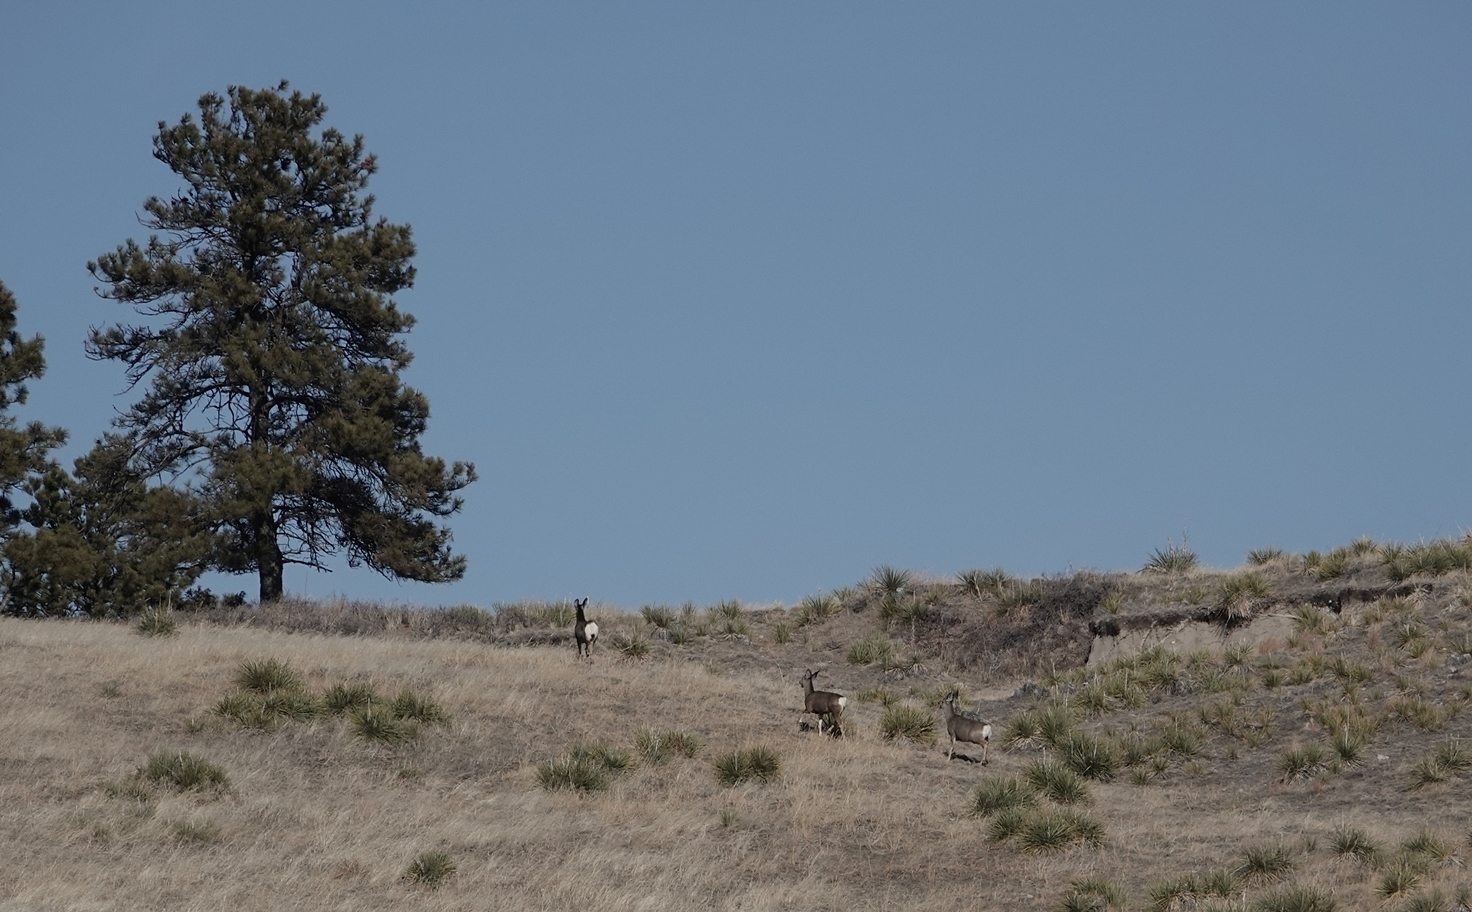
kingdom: Animalia
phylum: Chordata
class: Mammalia
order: Artiodactyla
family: Cervidae
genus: Odocoileus
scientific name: Odocoileus hemionus
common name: Mule deer
